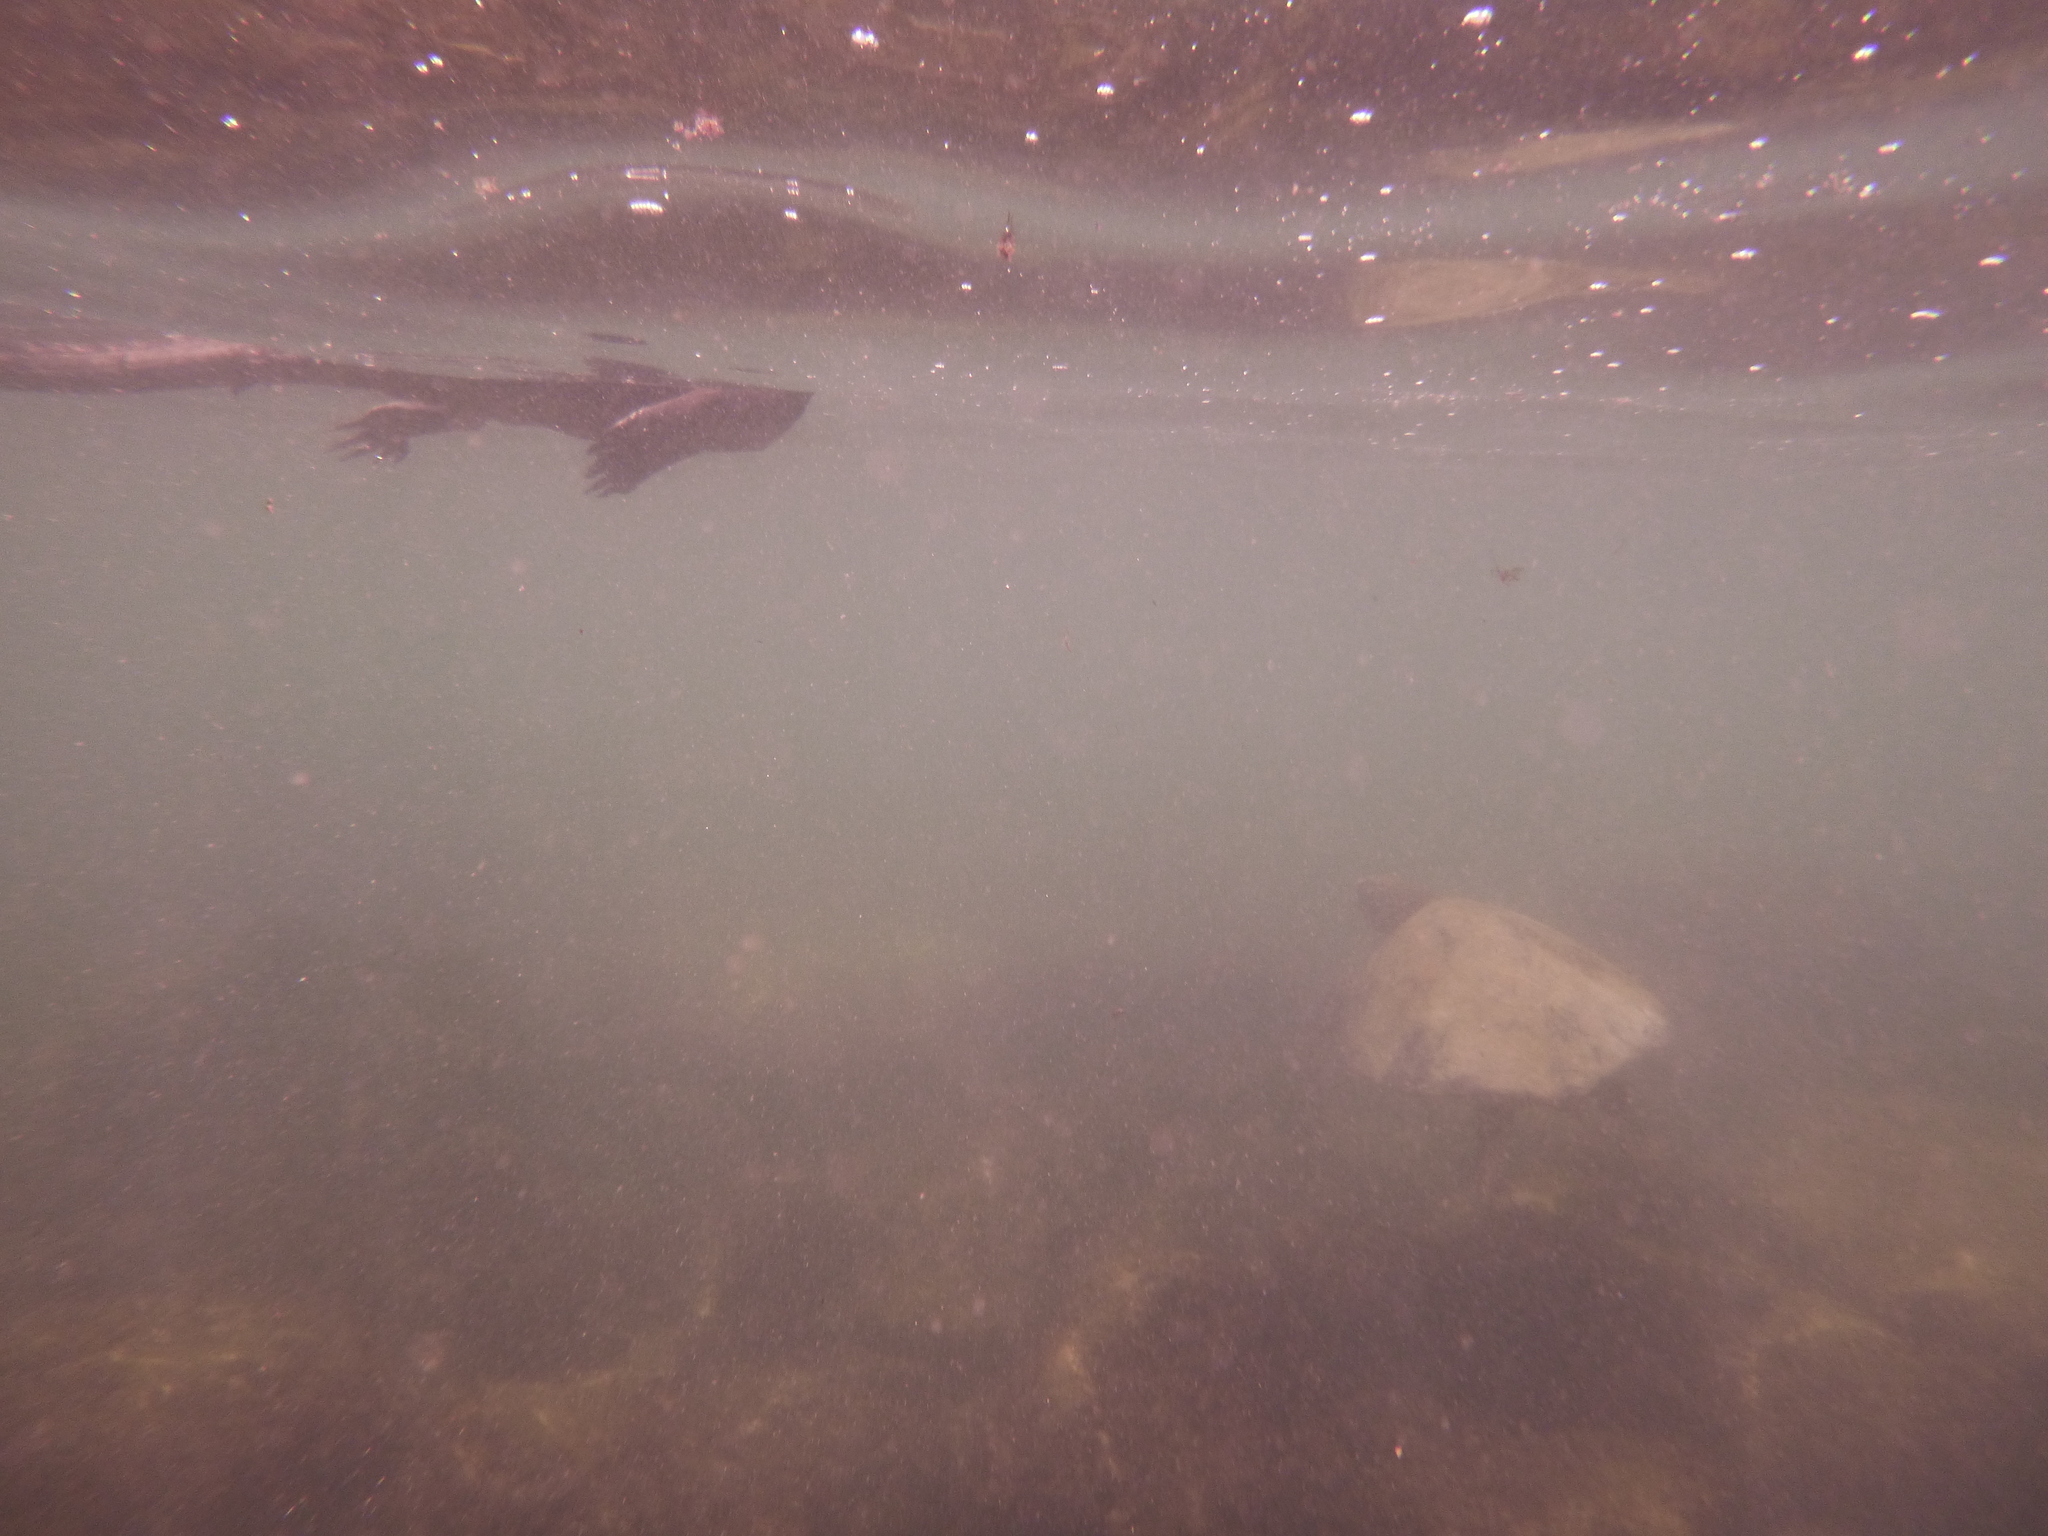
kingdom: Animalia
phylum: Chordata
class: Squamata
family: Iguanidae
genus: Amblyrhynchus
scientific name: Amblyrhynchus cristatus
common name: Marine iguana
